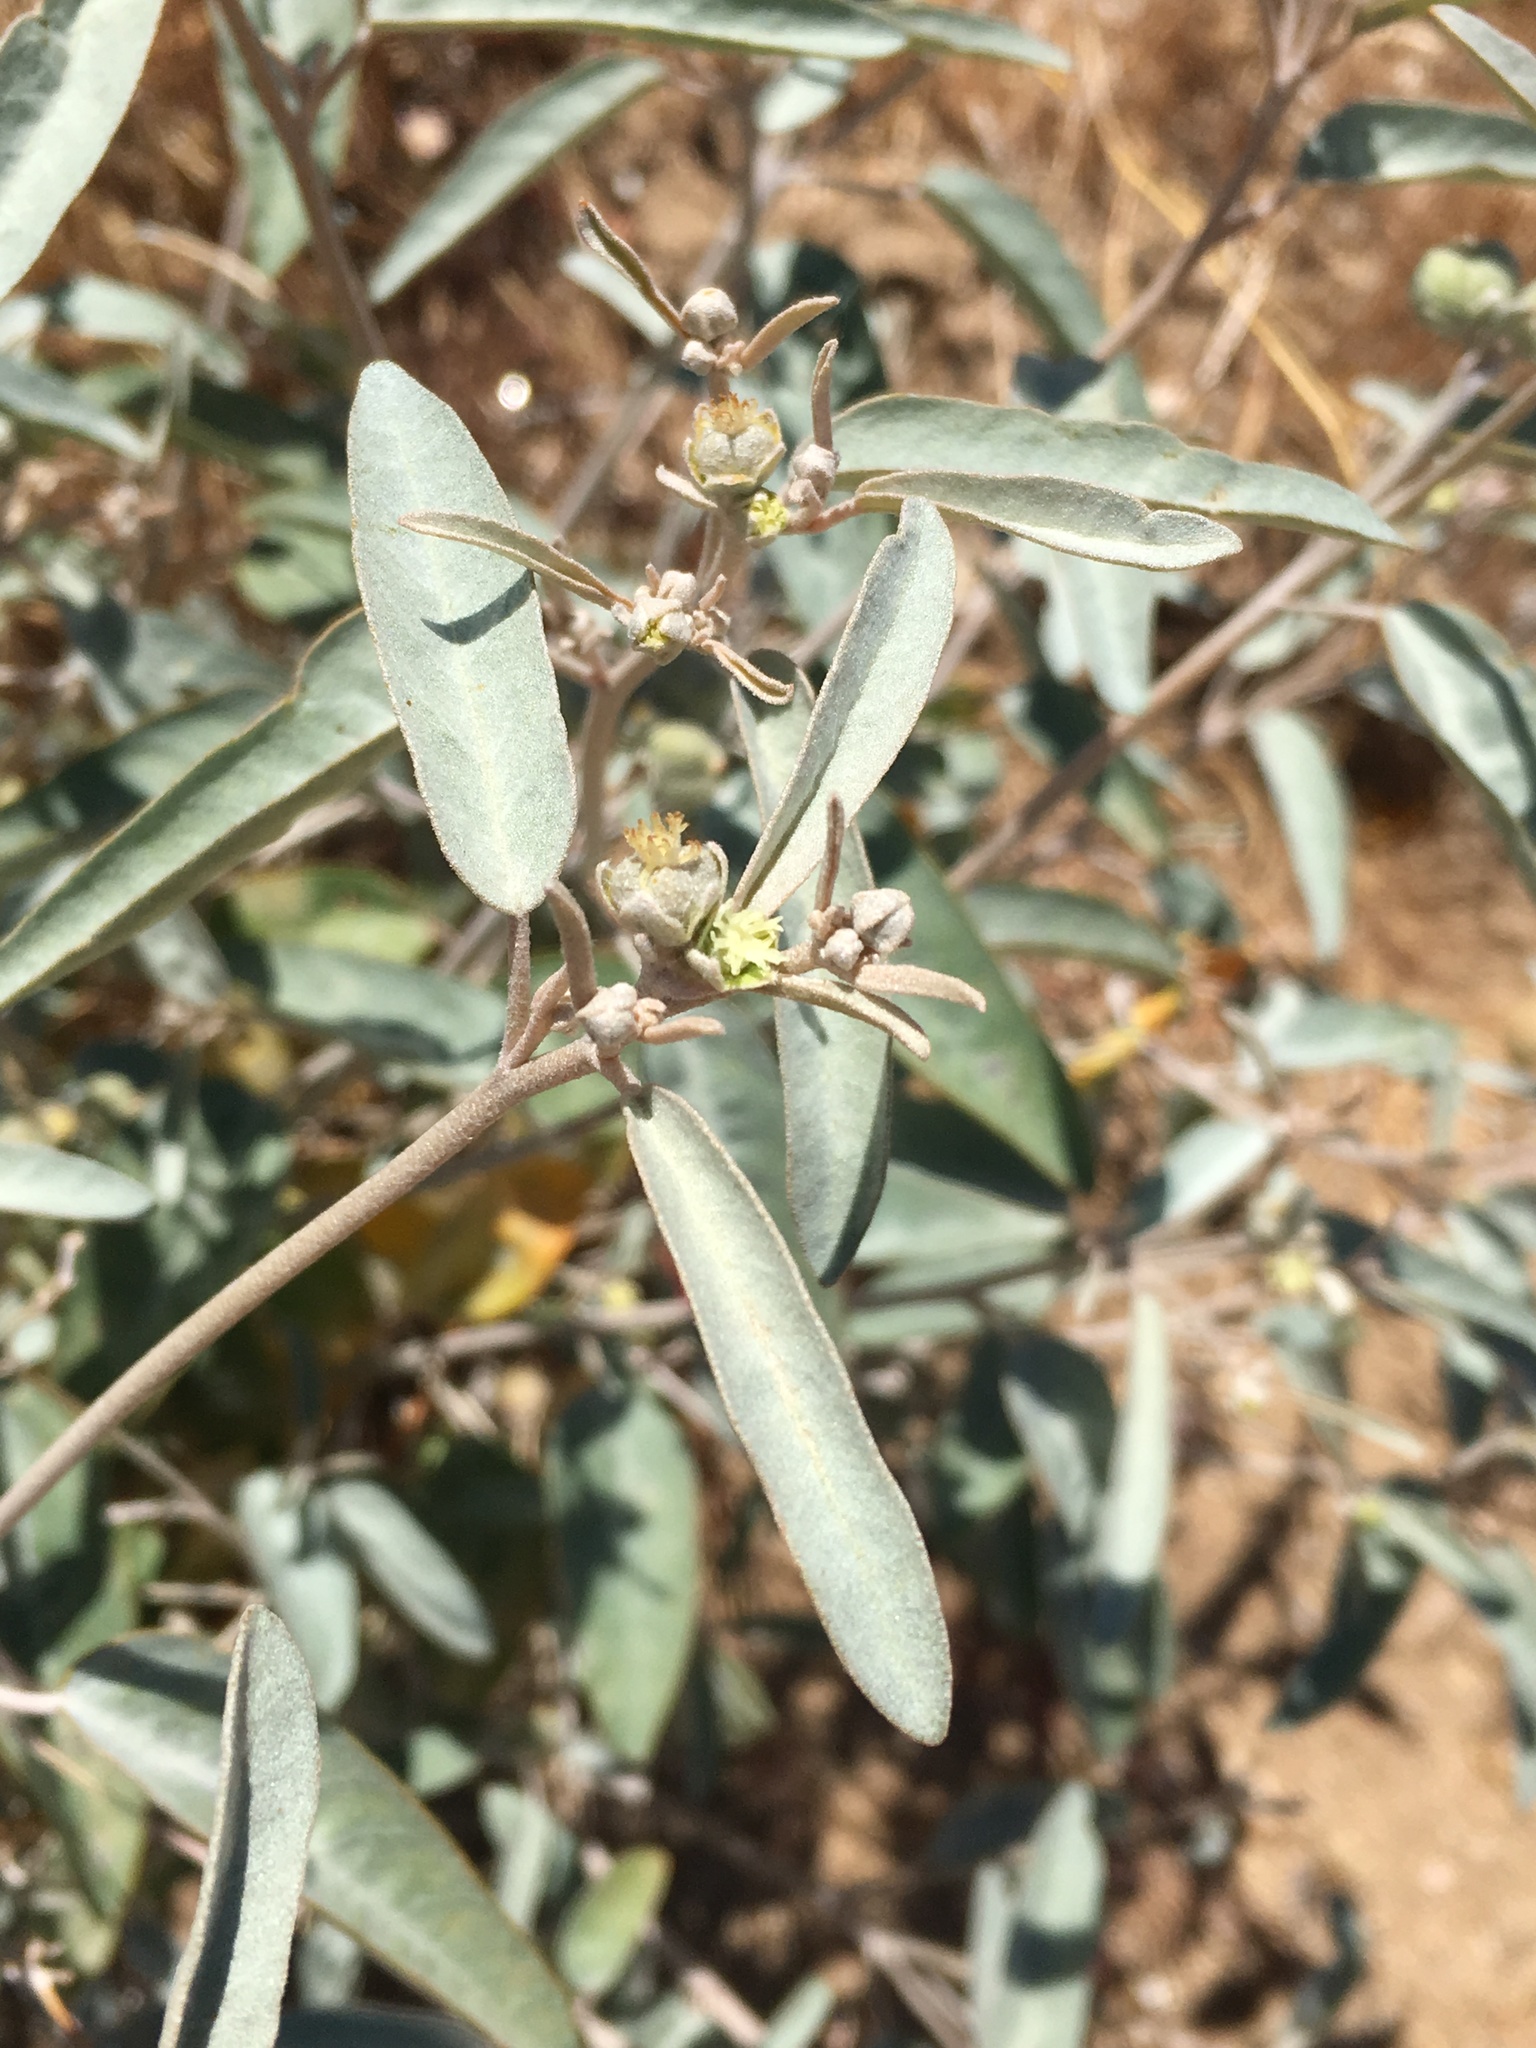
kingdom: Plantae
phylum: Tracheophyta
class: Magnoliopsida
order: Malpighiales
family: Euphorbiaceae
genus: Croton
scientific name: Croton californicus
